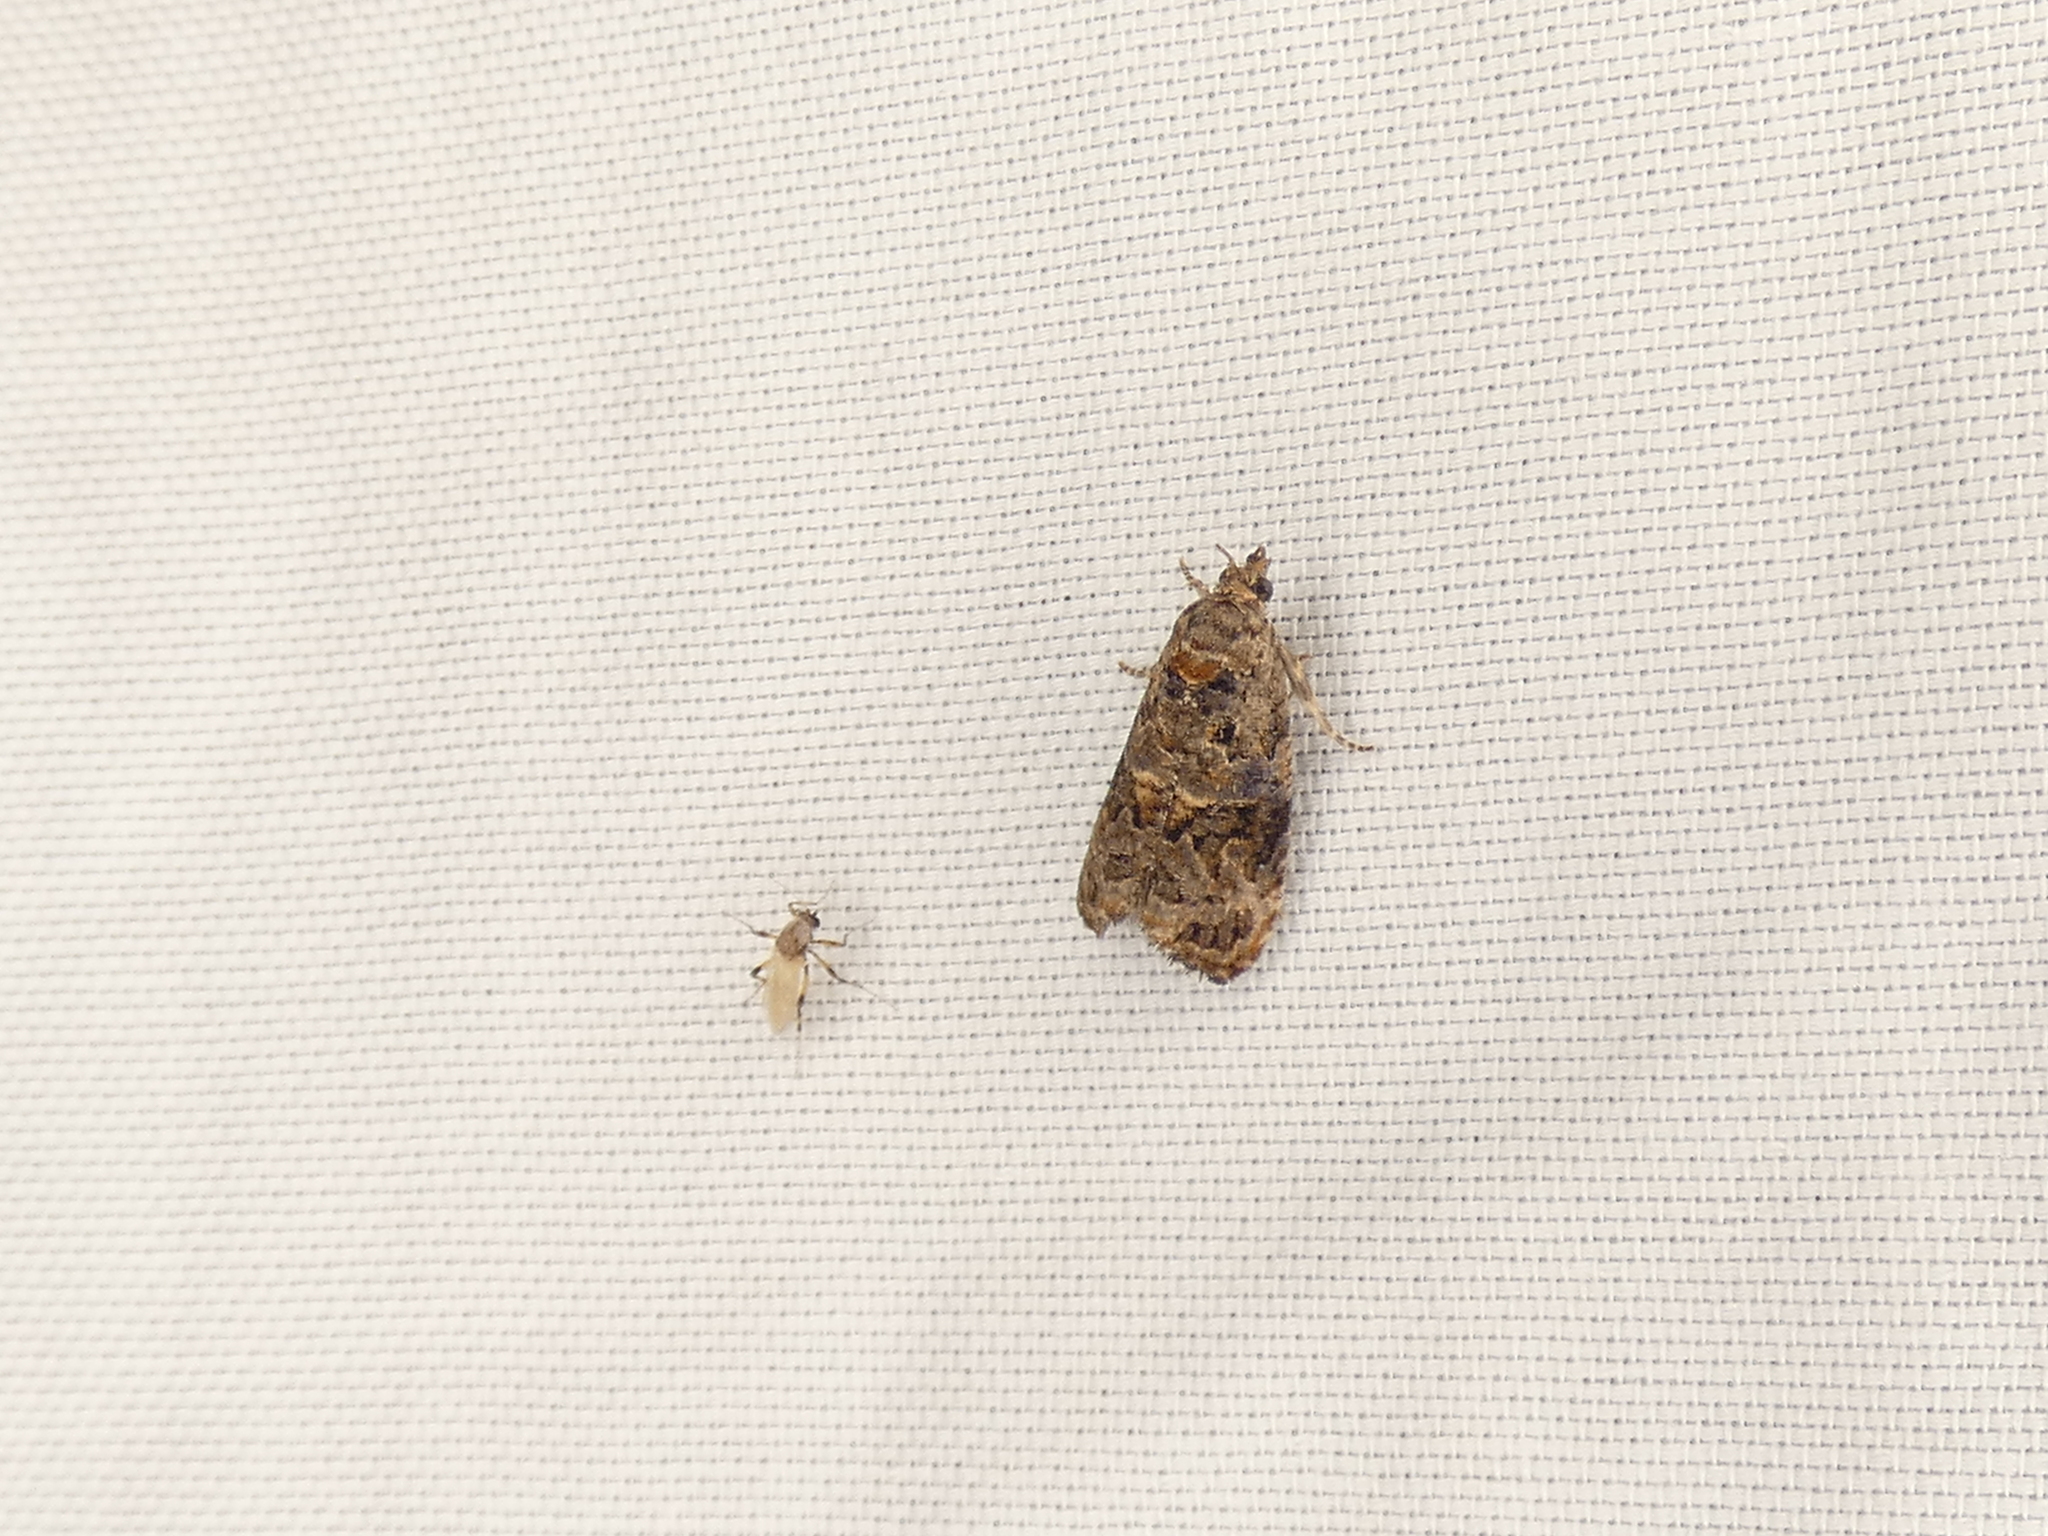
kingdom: Animalia
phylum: Arthropoda
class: Insecta
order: Lepidoptera
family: Tortricidae
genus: Endothenia
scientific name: Endothenia hebesana
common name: Verbena bud moth
